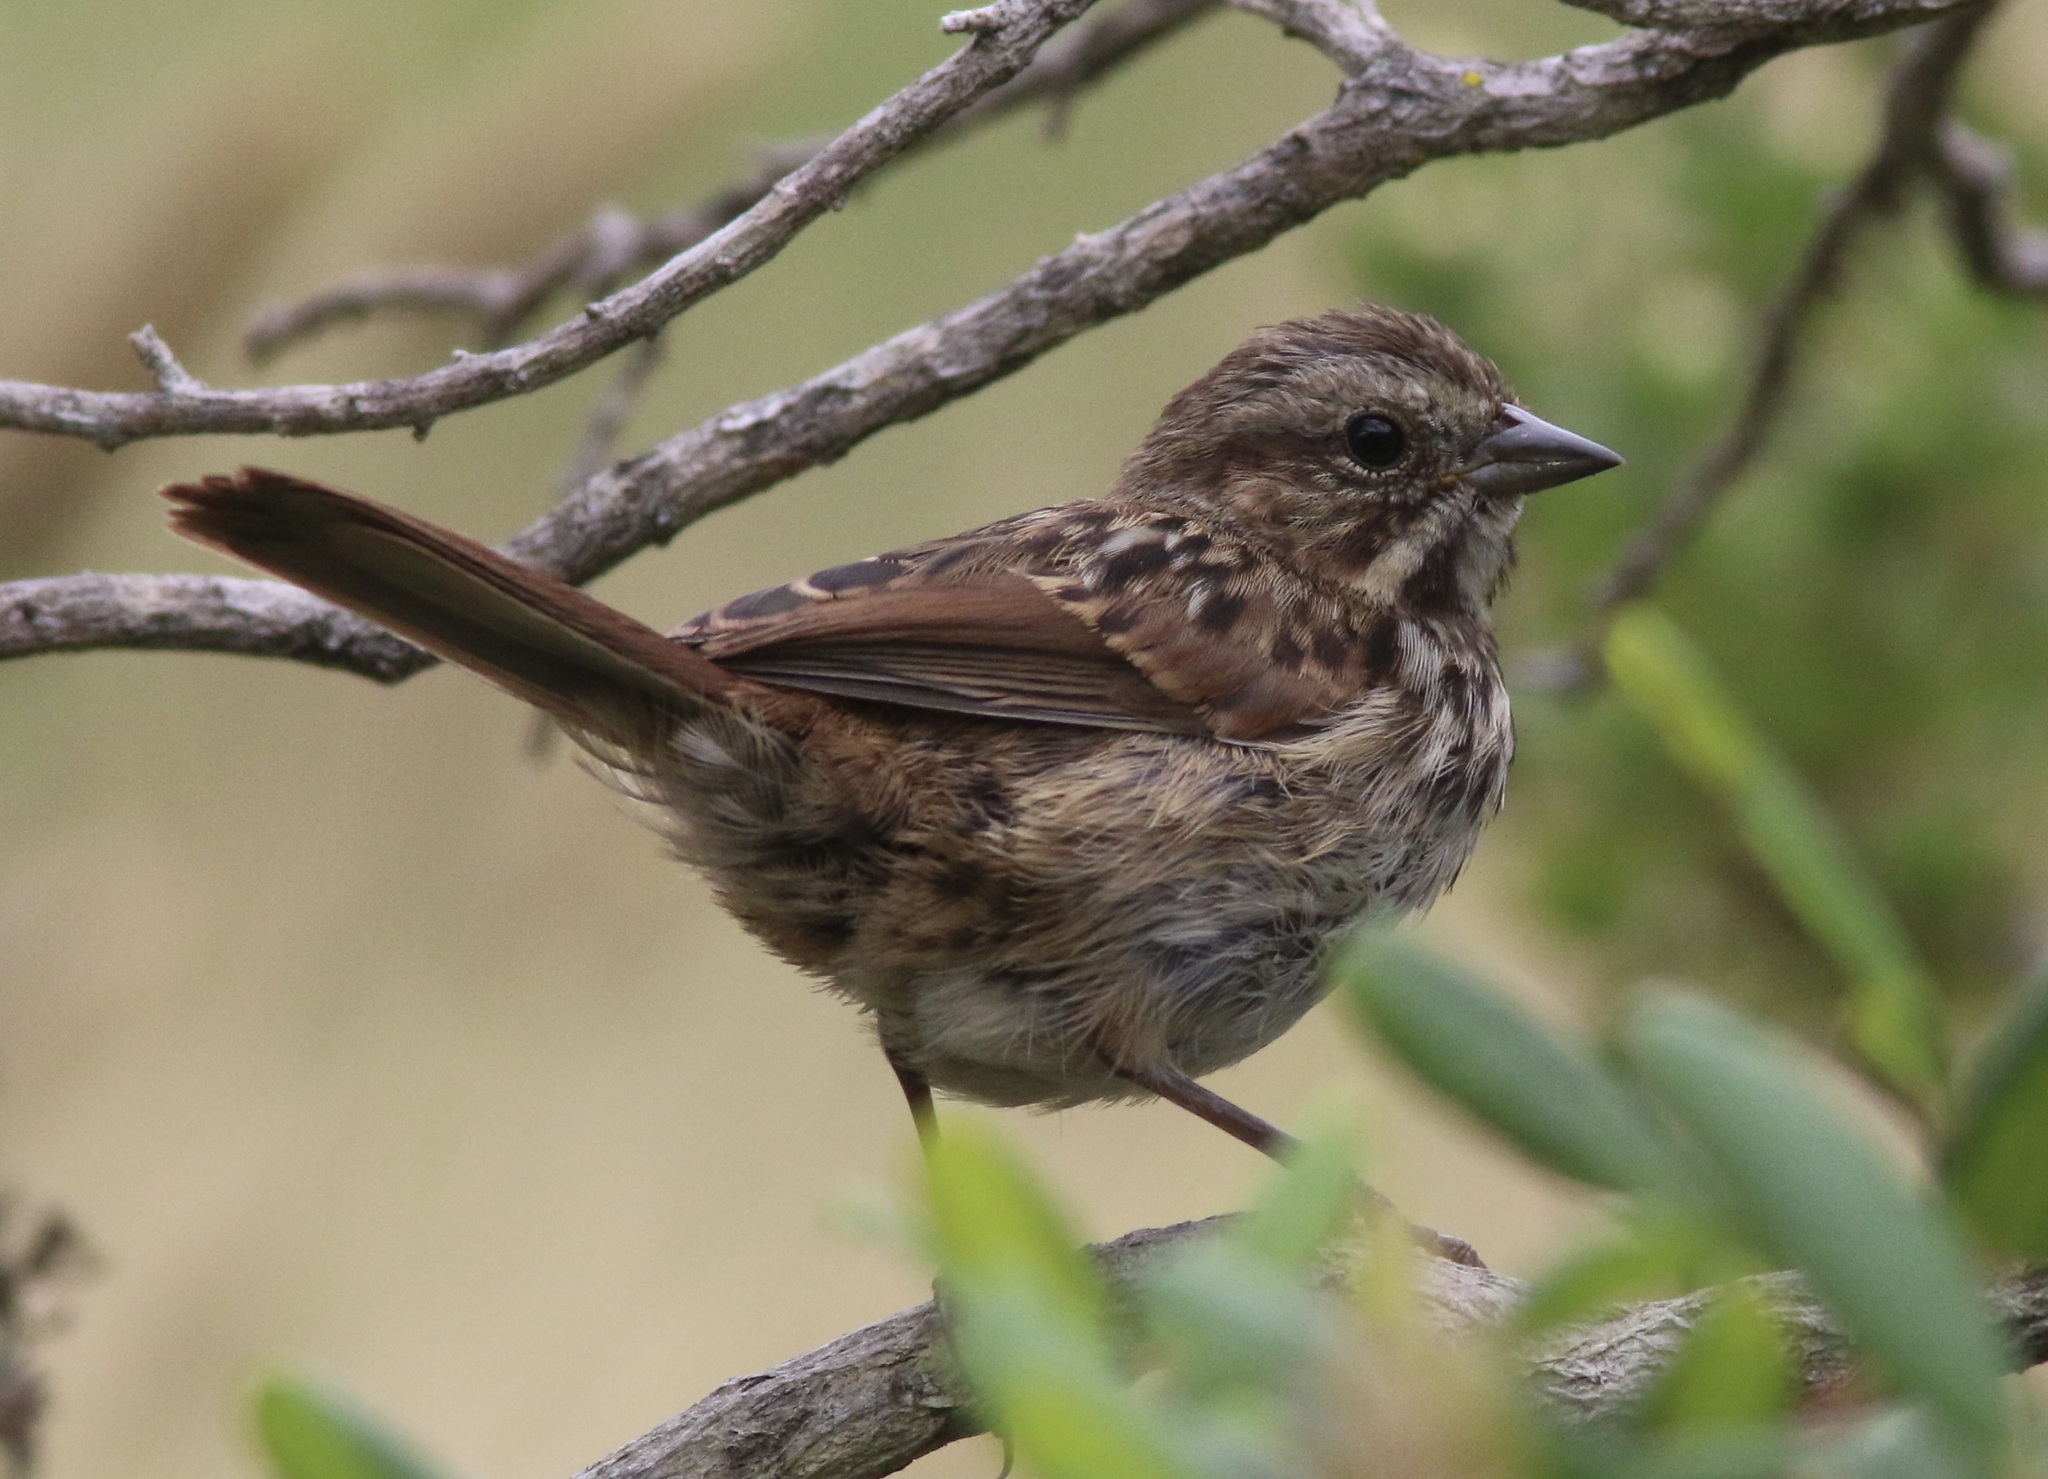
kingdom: Animalia
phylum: Chordata
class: Aves
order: Passeriformes
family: Passerellidae
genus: Melospiza
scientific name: Melospiza melodia
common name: Song sparrow
